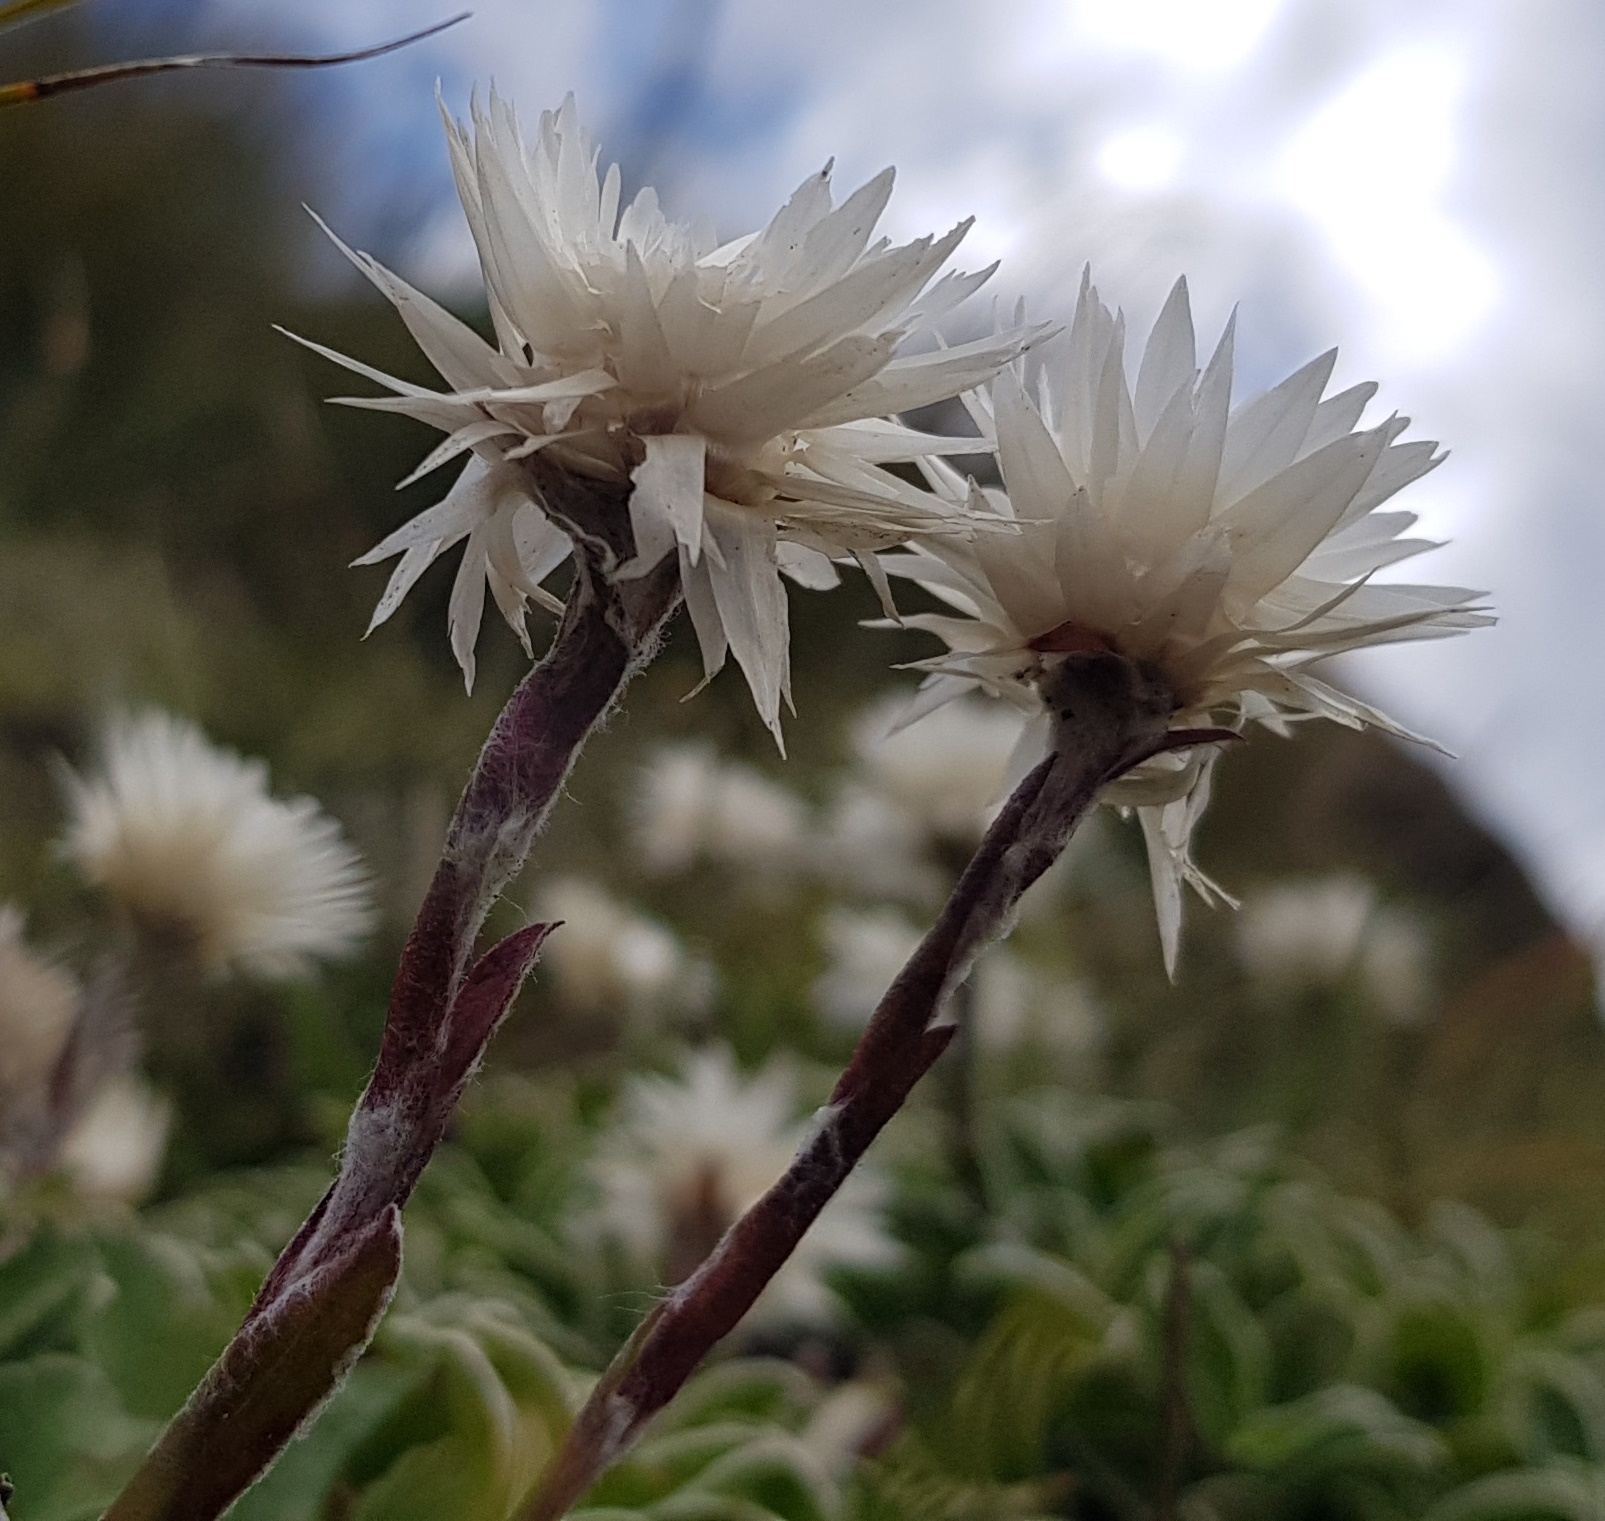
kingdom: Plantae
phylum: Tracheophyta
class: Magnoliopsida
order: Asterales
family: Asteraceae
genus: Helichrysum
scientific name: Helichrysum marginatum
